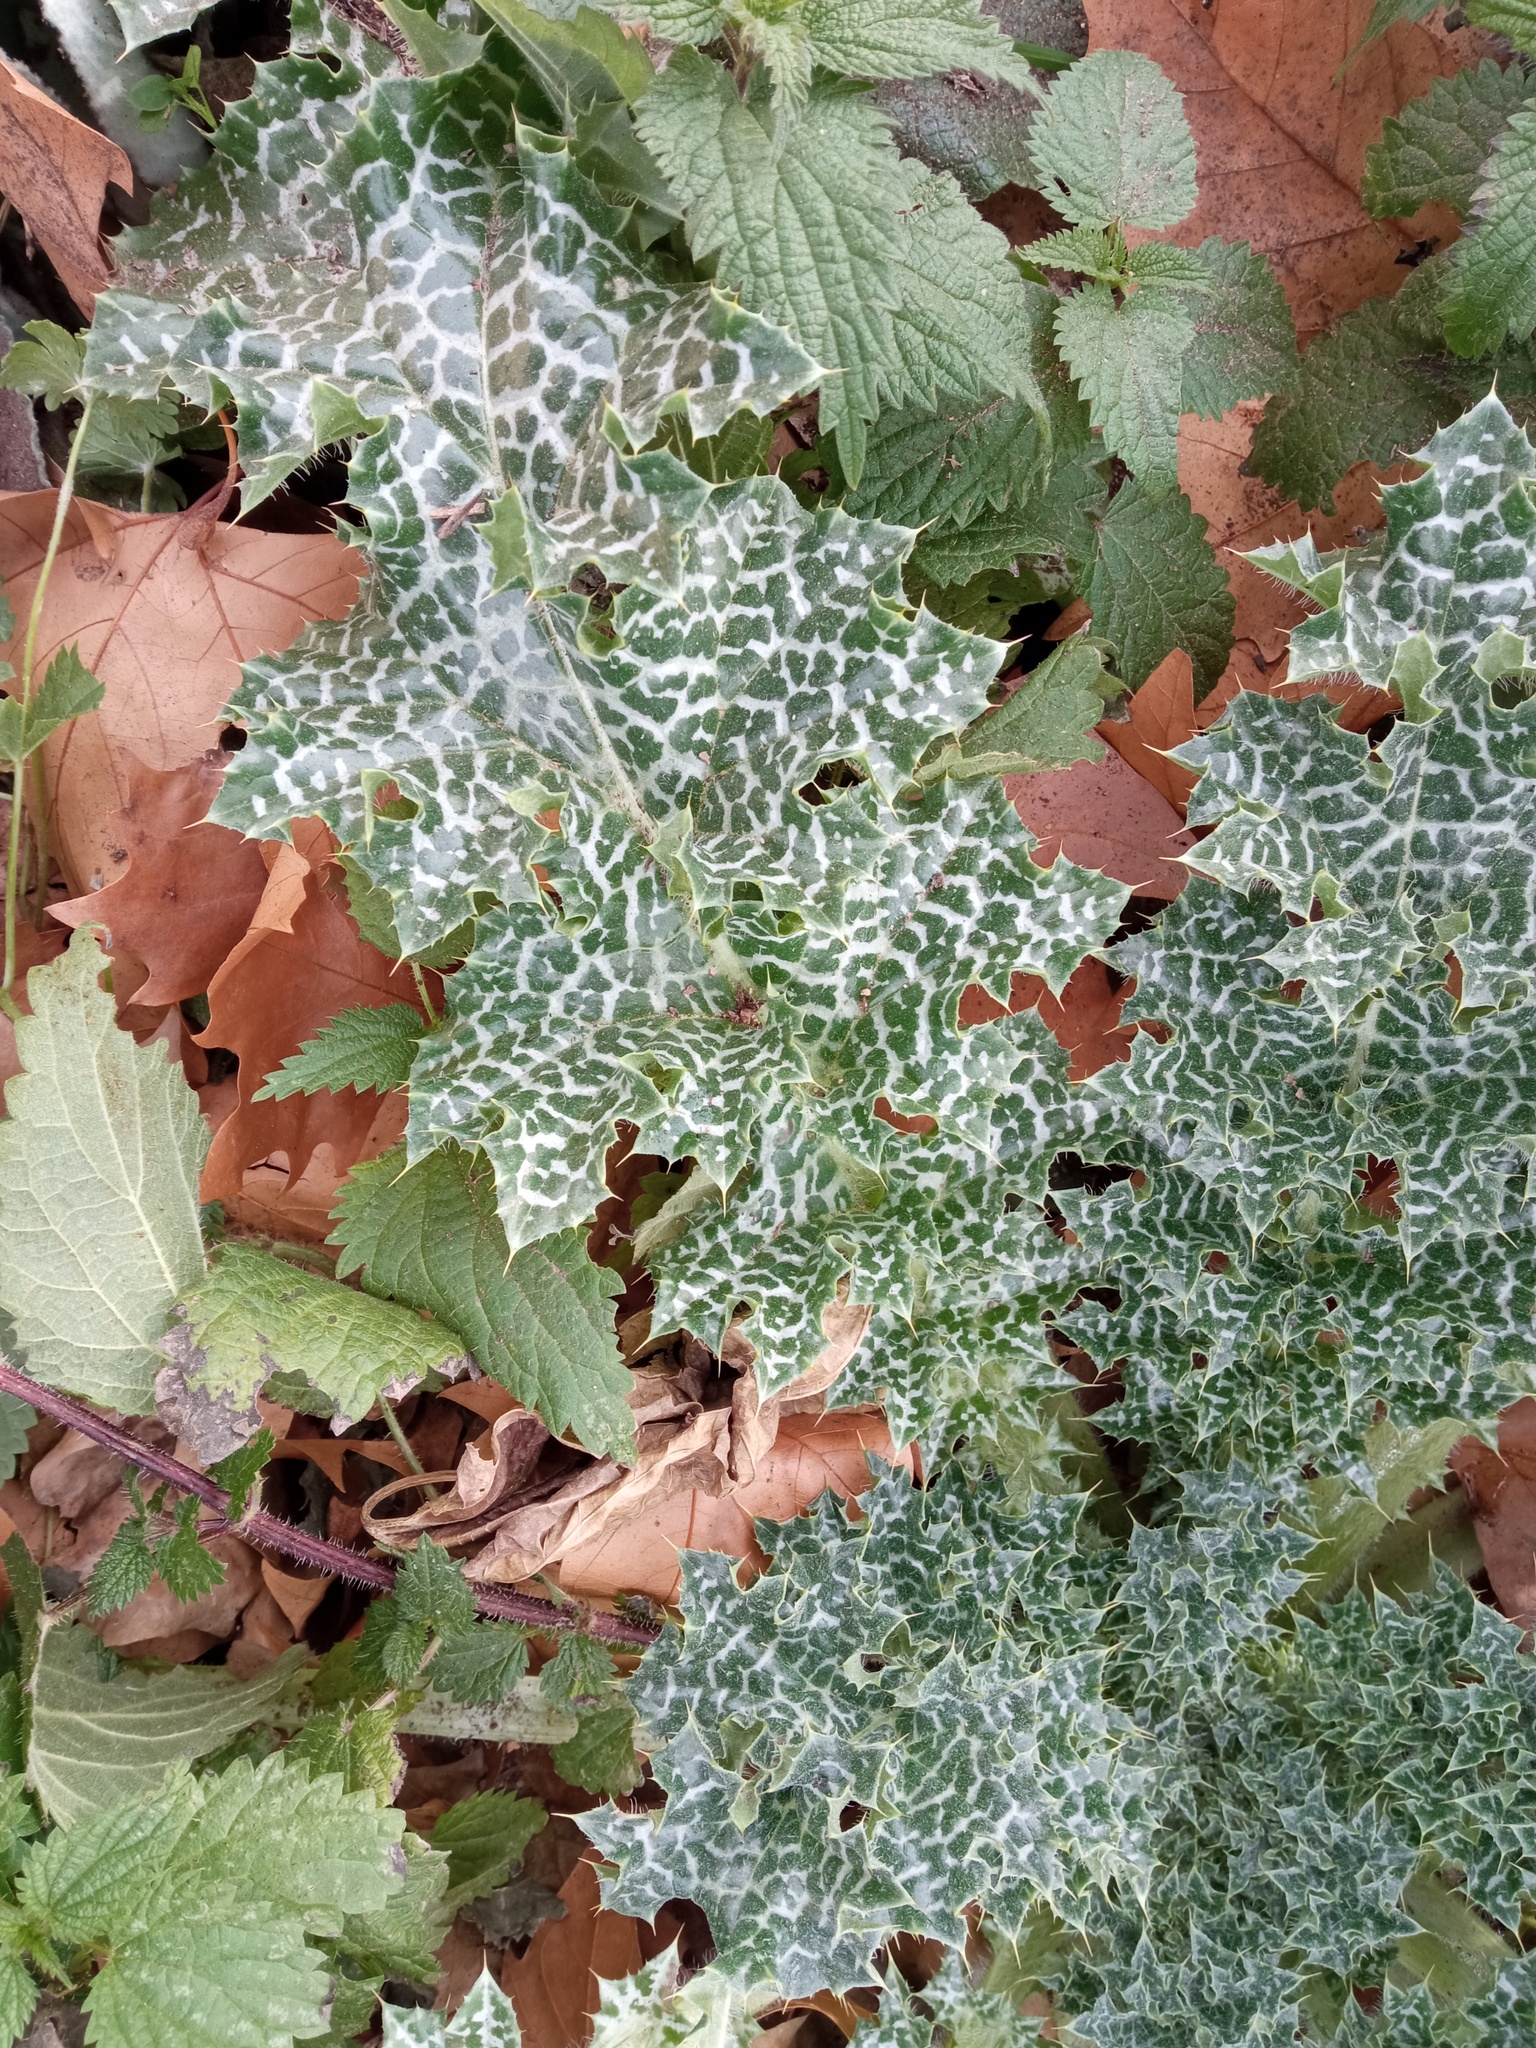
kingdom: Plantae
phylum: Tracheophyta
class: Magnoliopsida
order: Asterales
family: Asteraceae
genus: Silybum
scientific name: Silybum marianum
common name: Milk thistle
